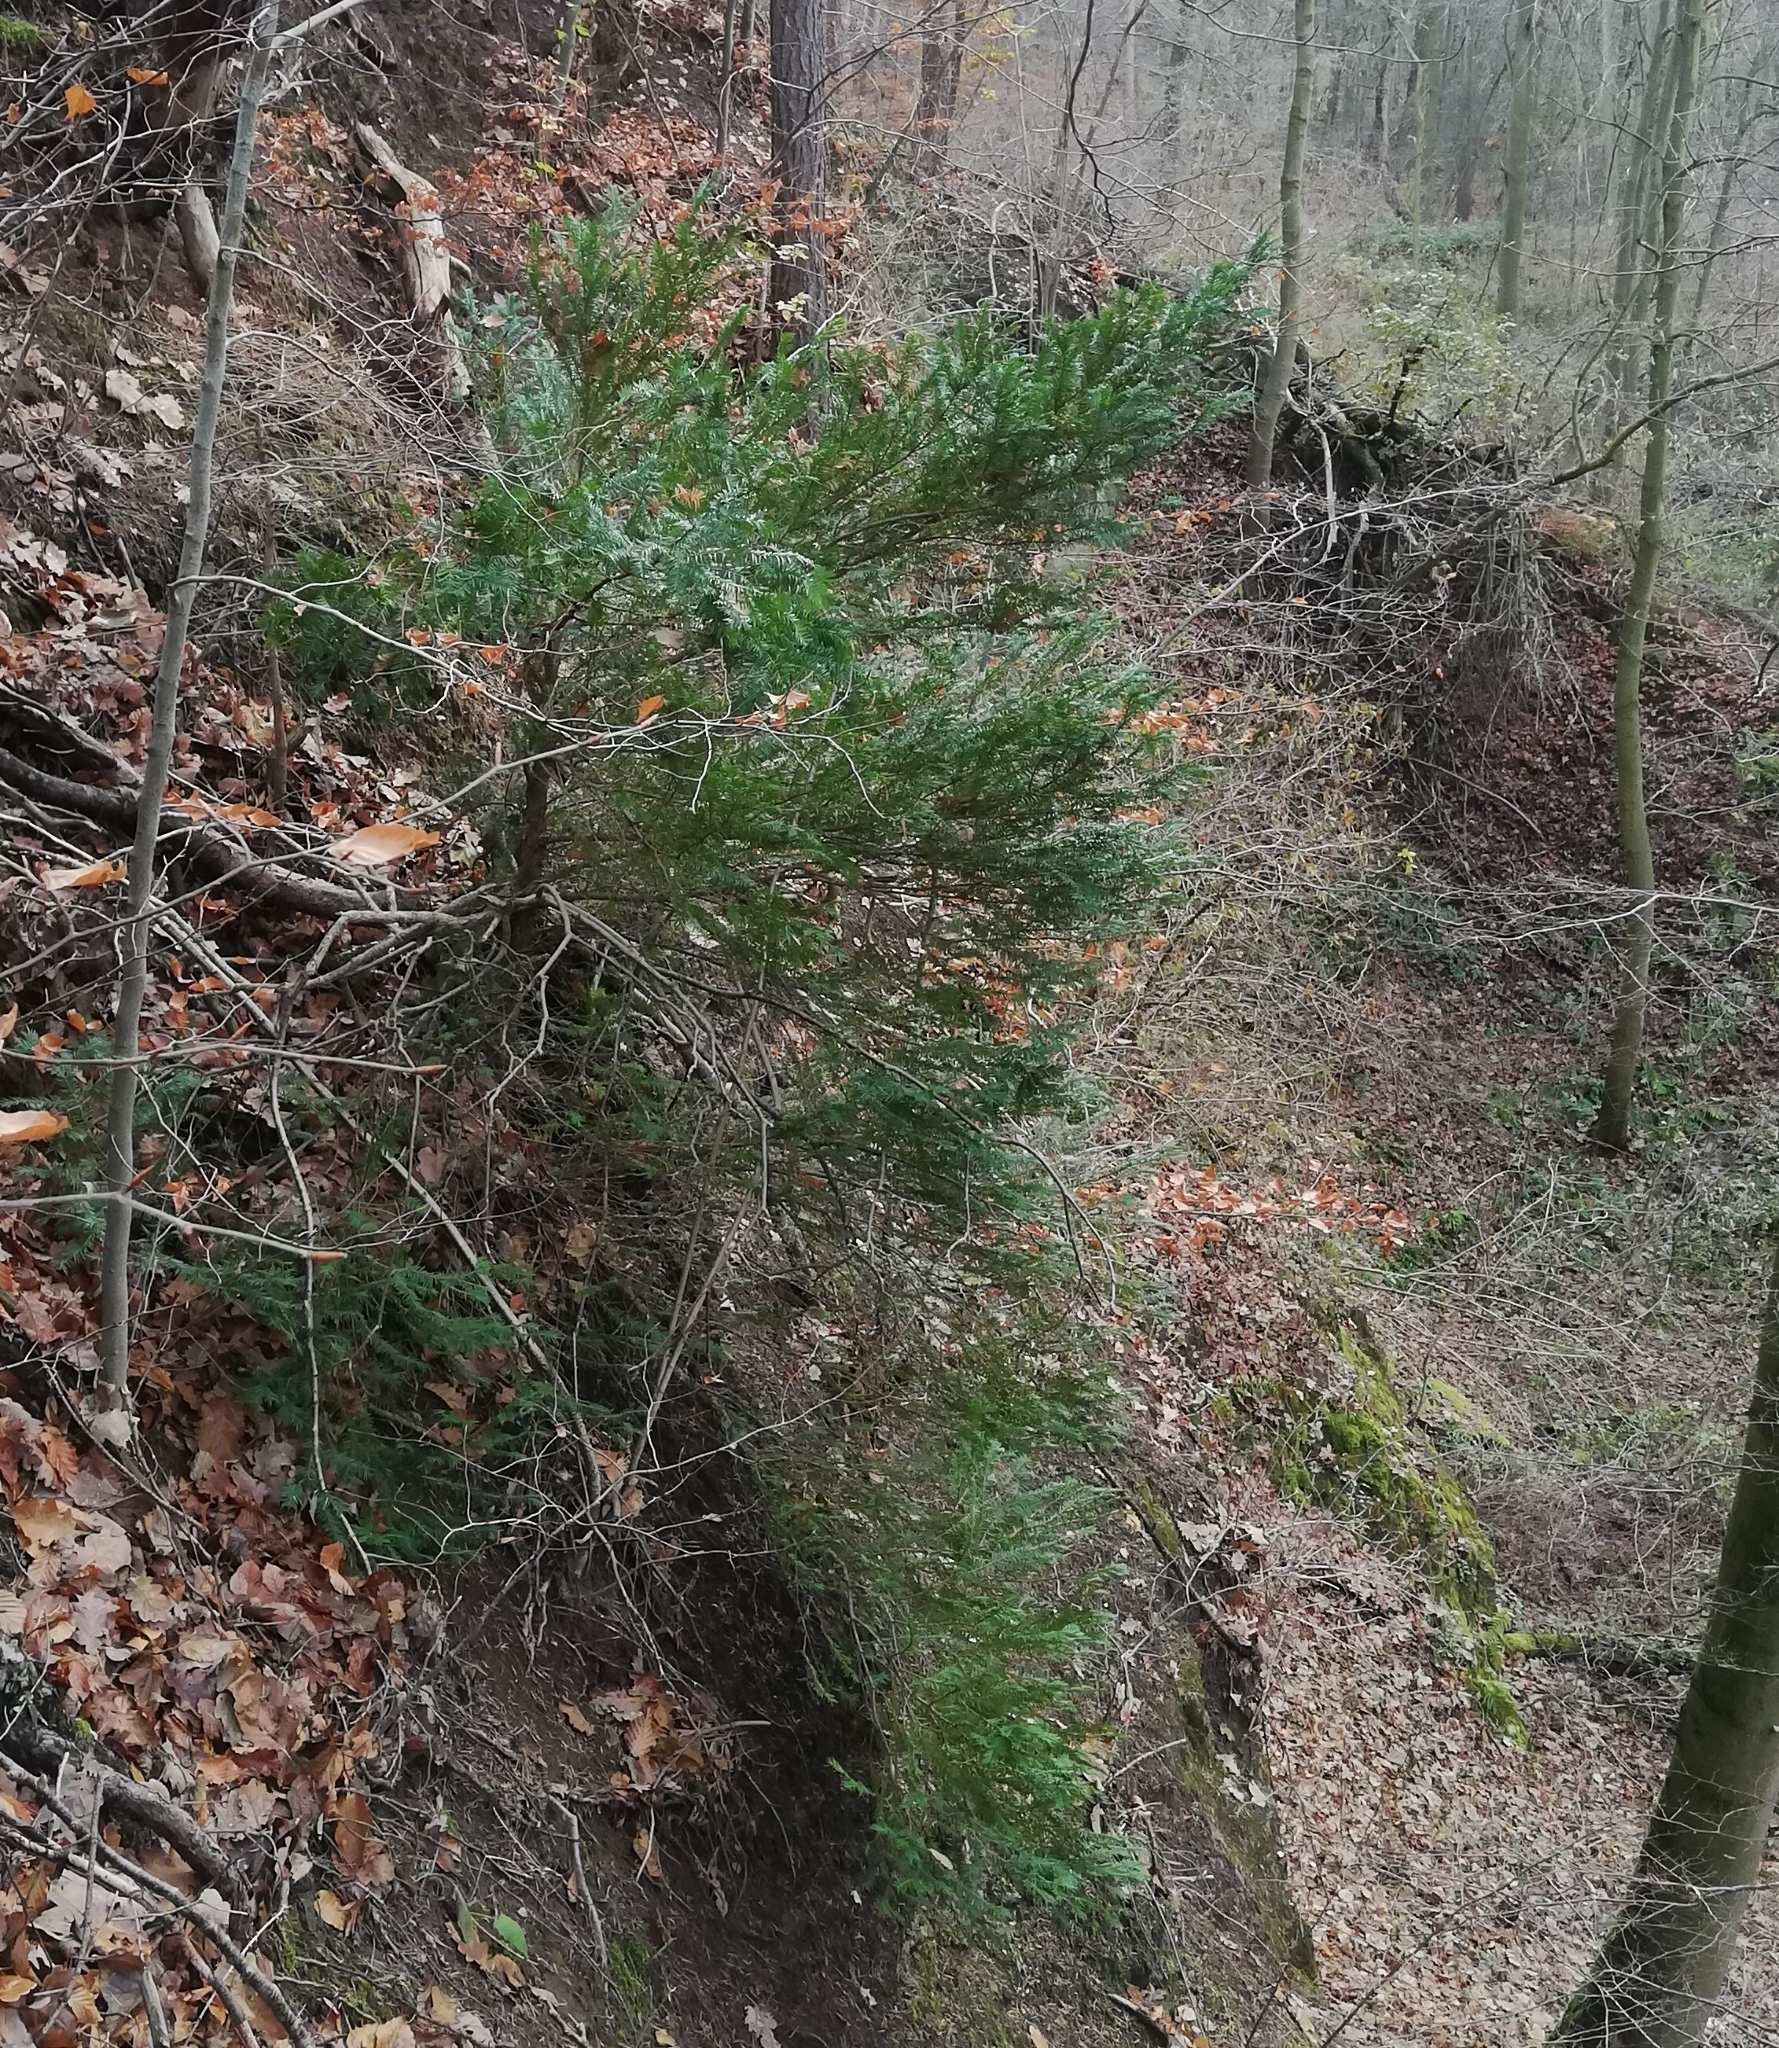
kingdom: Plantae
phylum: Tracheophyta
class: Pinopsida
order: Pinales
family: Taxaceae
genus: Taxus
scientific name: Taxus baccata
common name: Yew
